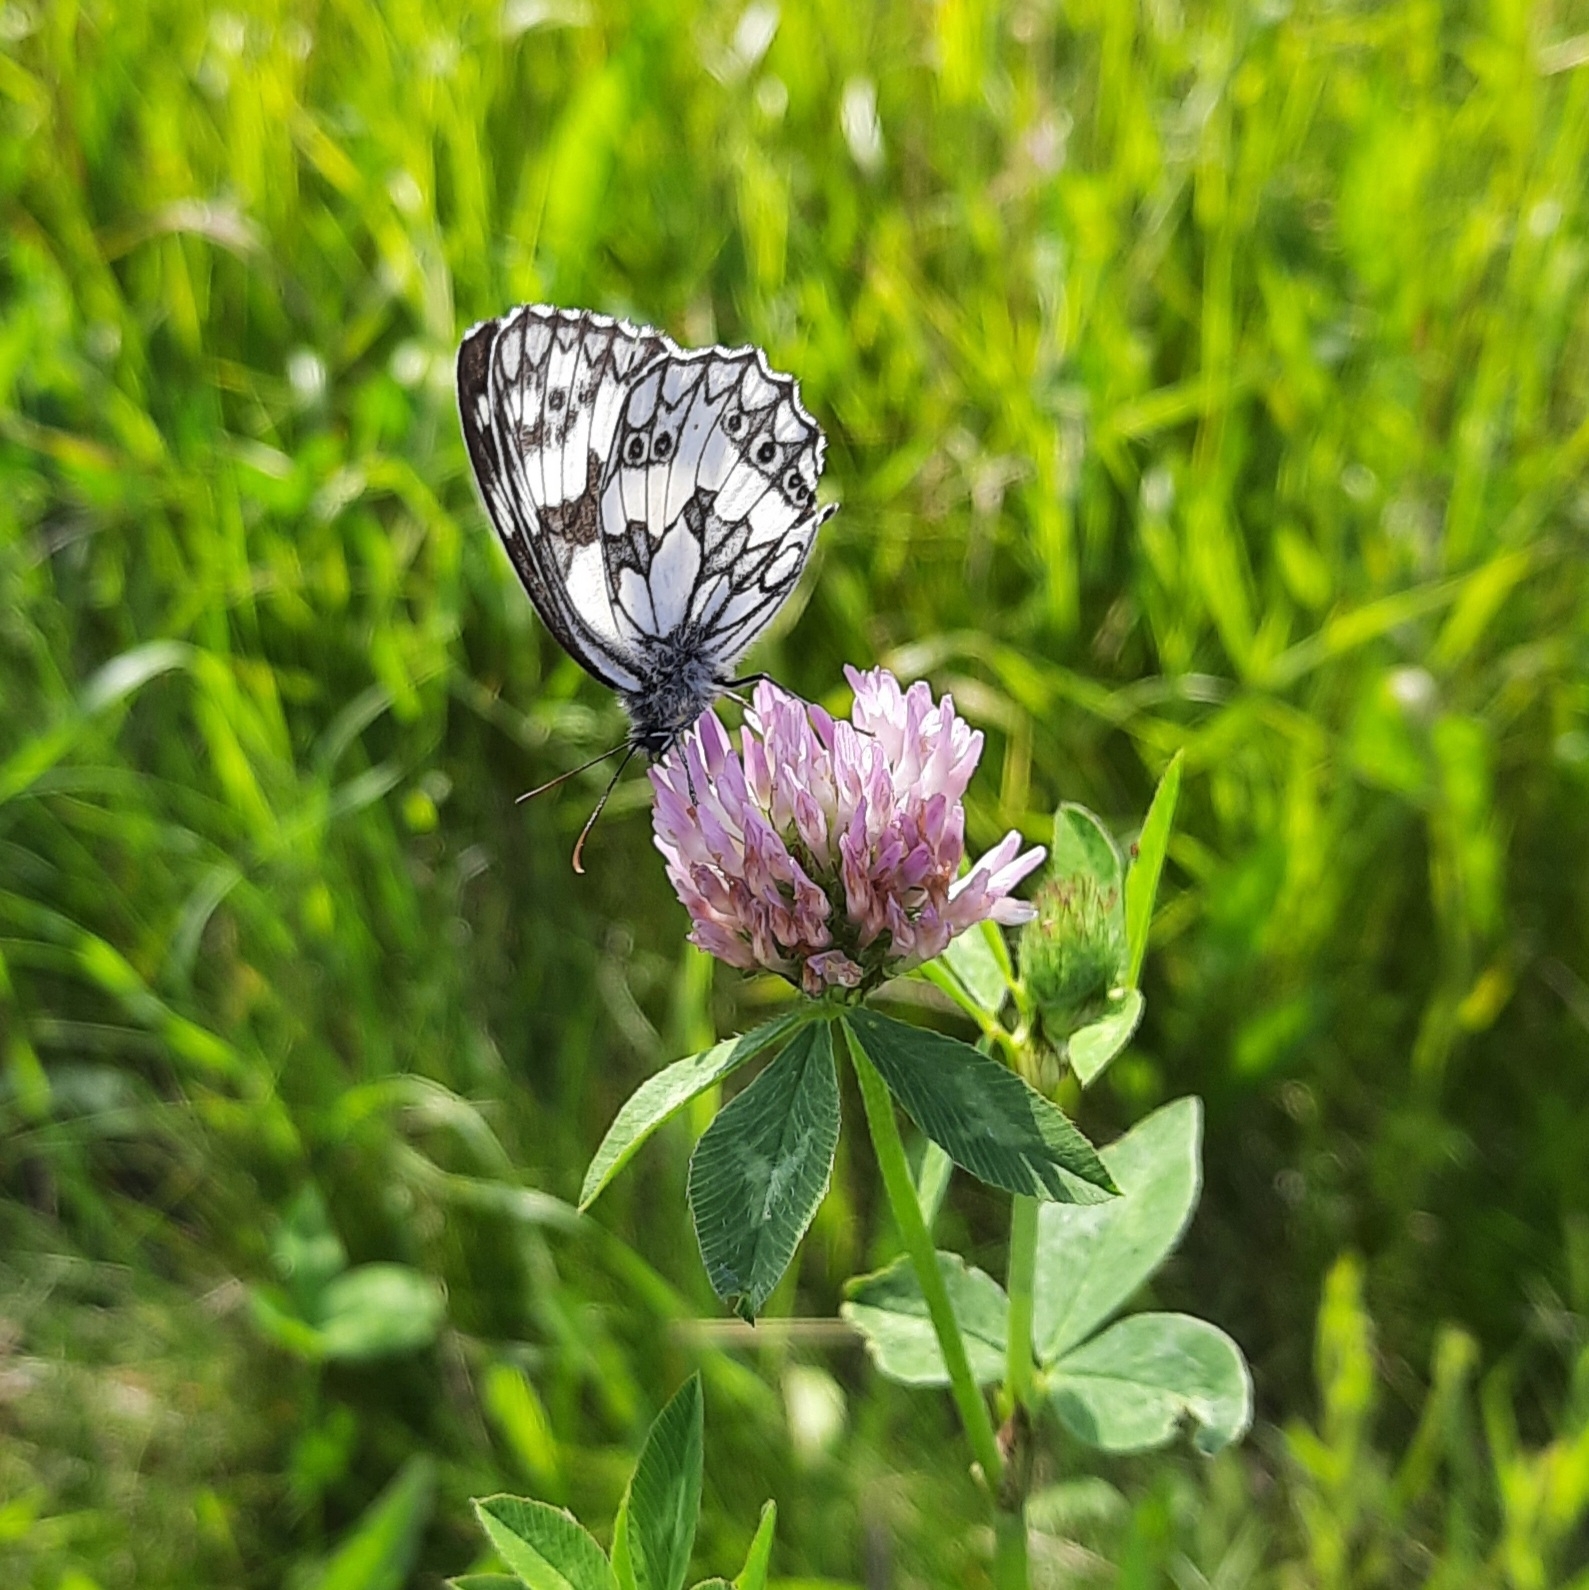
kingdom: Animalia
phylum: Arthropoda
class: Insecta
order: Lepidoptera
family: Nymphalidae
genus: Melanargia
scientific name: Melanargia galathea
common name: Marbled white
